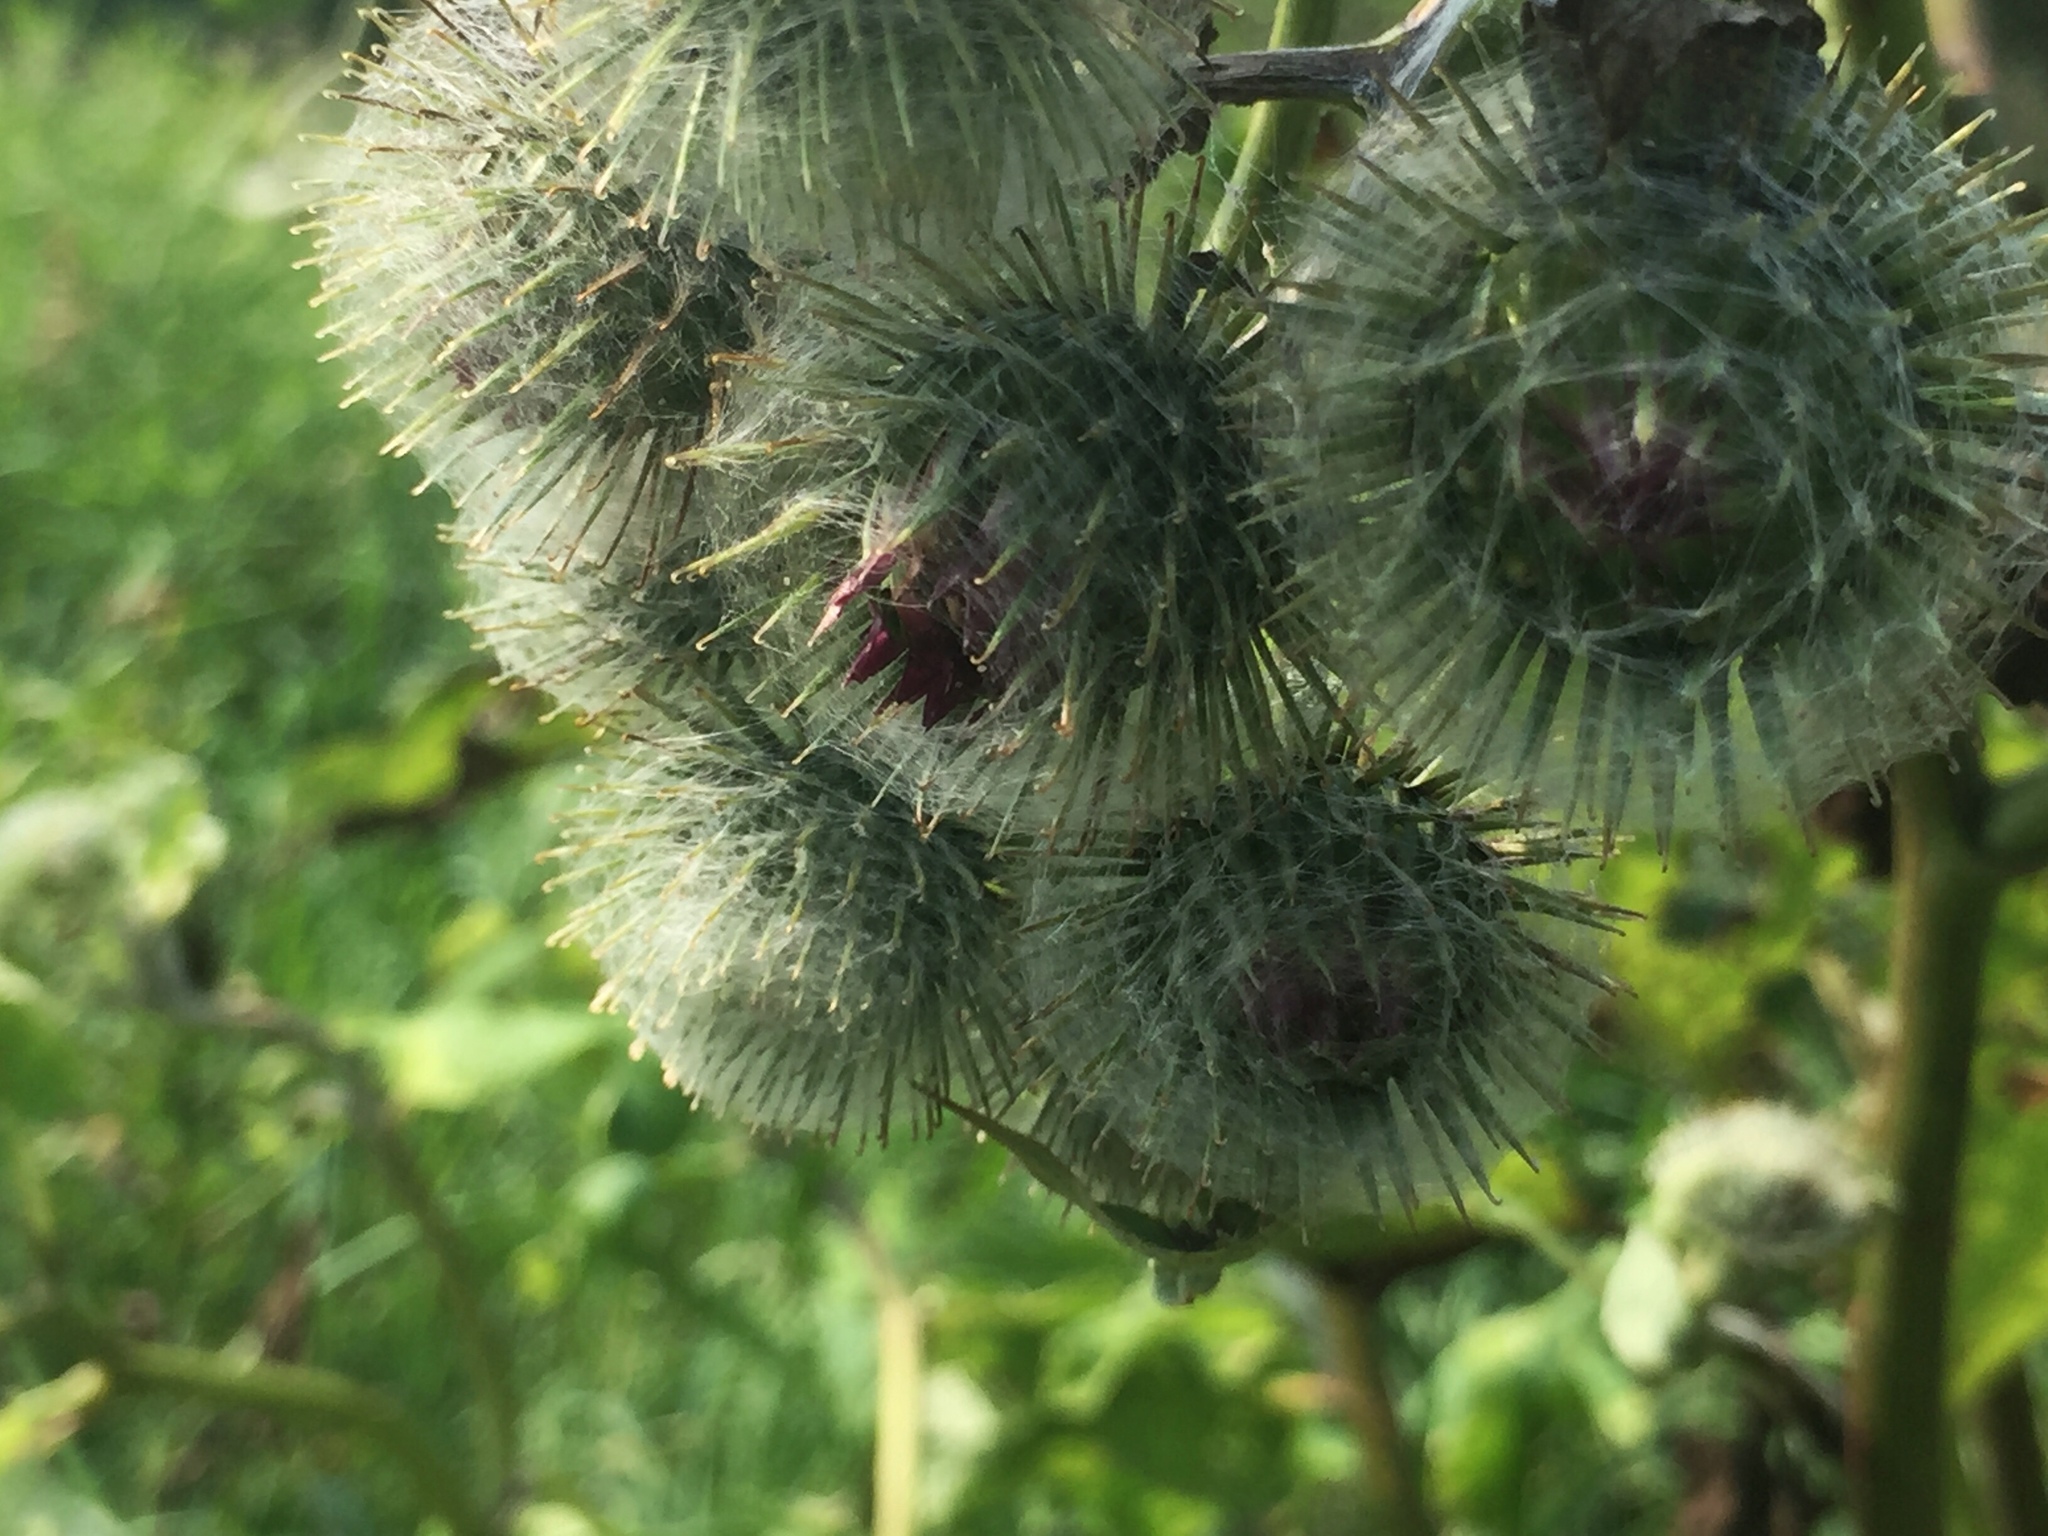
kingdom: Plantae
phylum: Tracheophyta
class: Magnoliopsida
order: Asterales
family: Asteraceae
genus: Arctium
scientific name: Arctium tomentosum
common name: Woolly burdock
